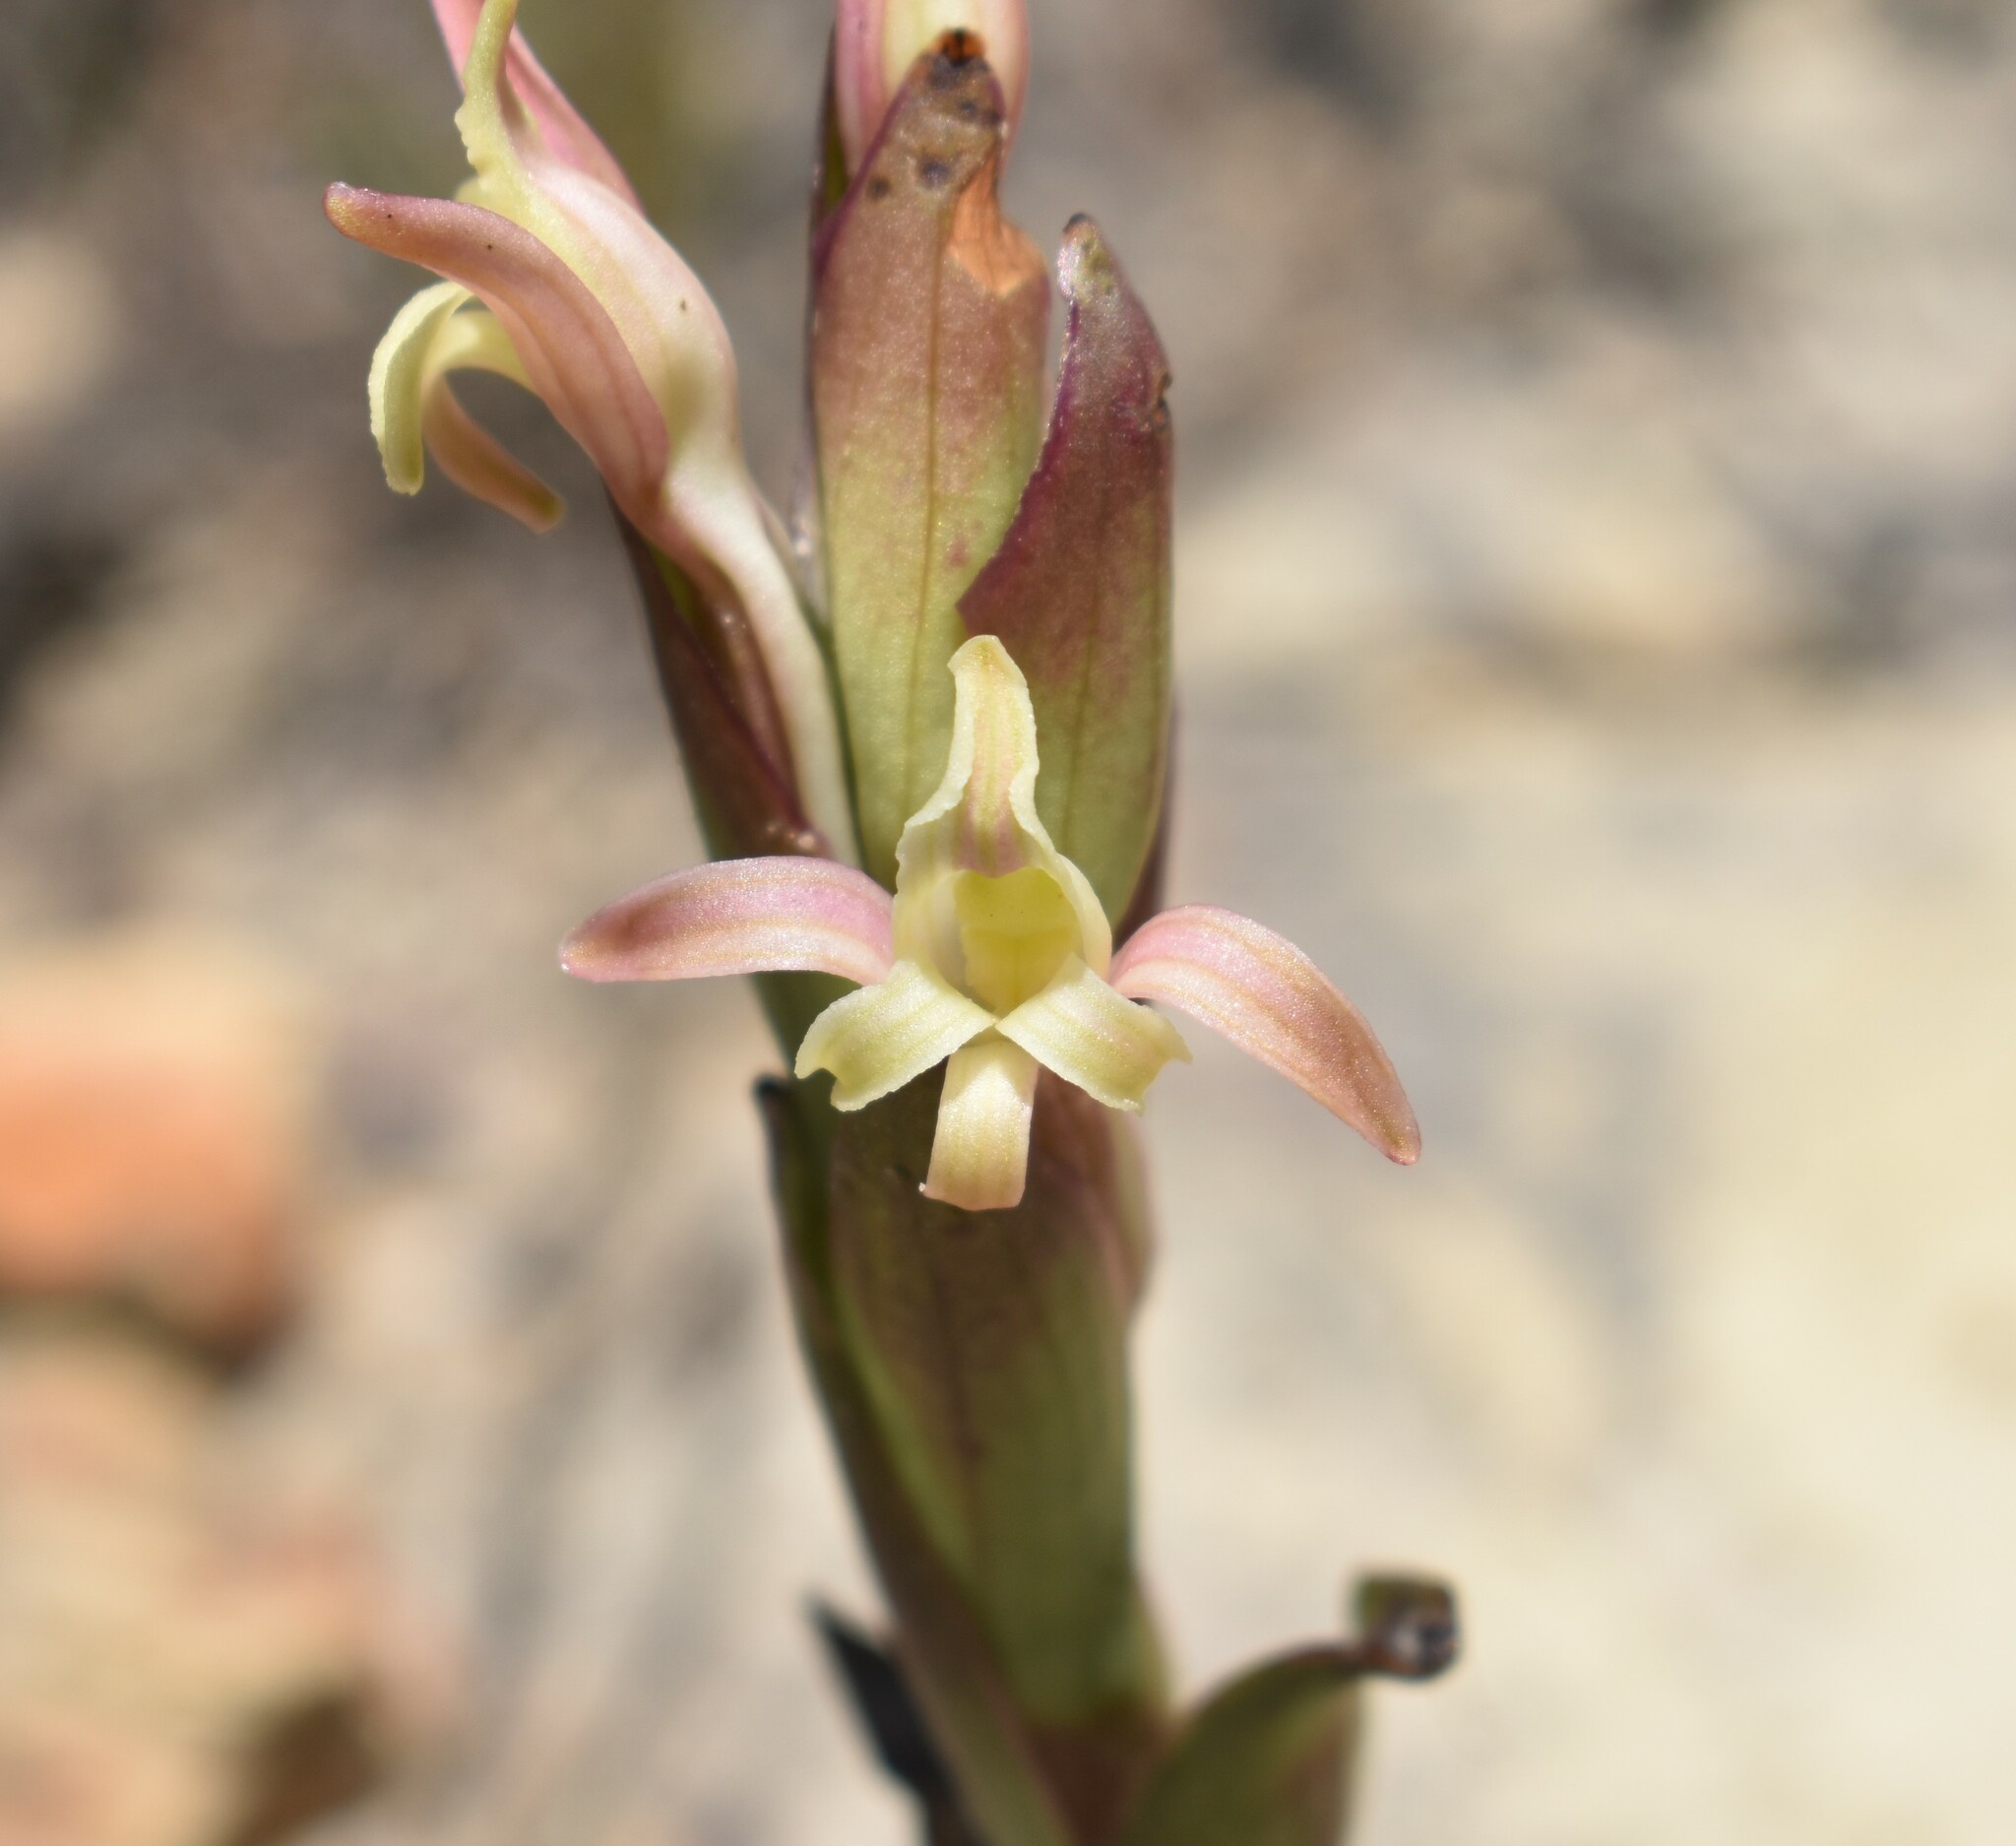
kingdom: Plantae
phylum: Tracheophyta
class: Liliopsida
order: Asparagales
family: Orchidaceae
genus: Satyrium
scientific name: Satyrium stenopetalum
